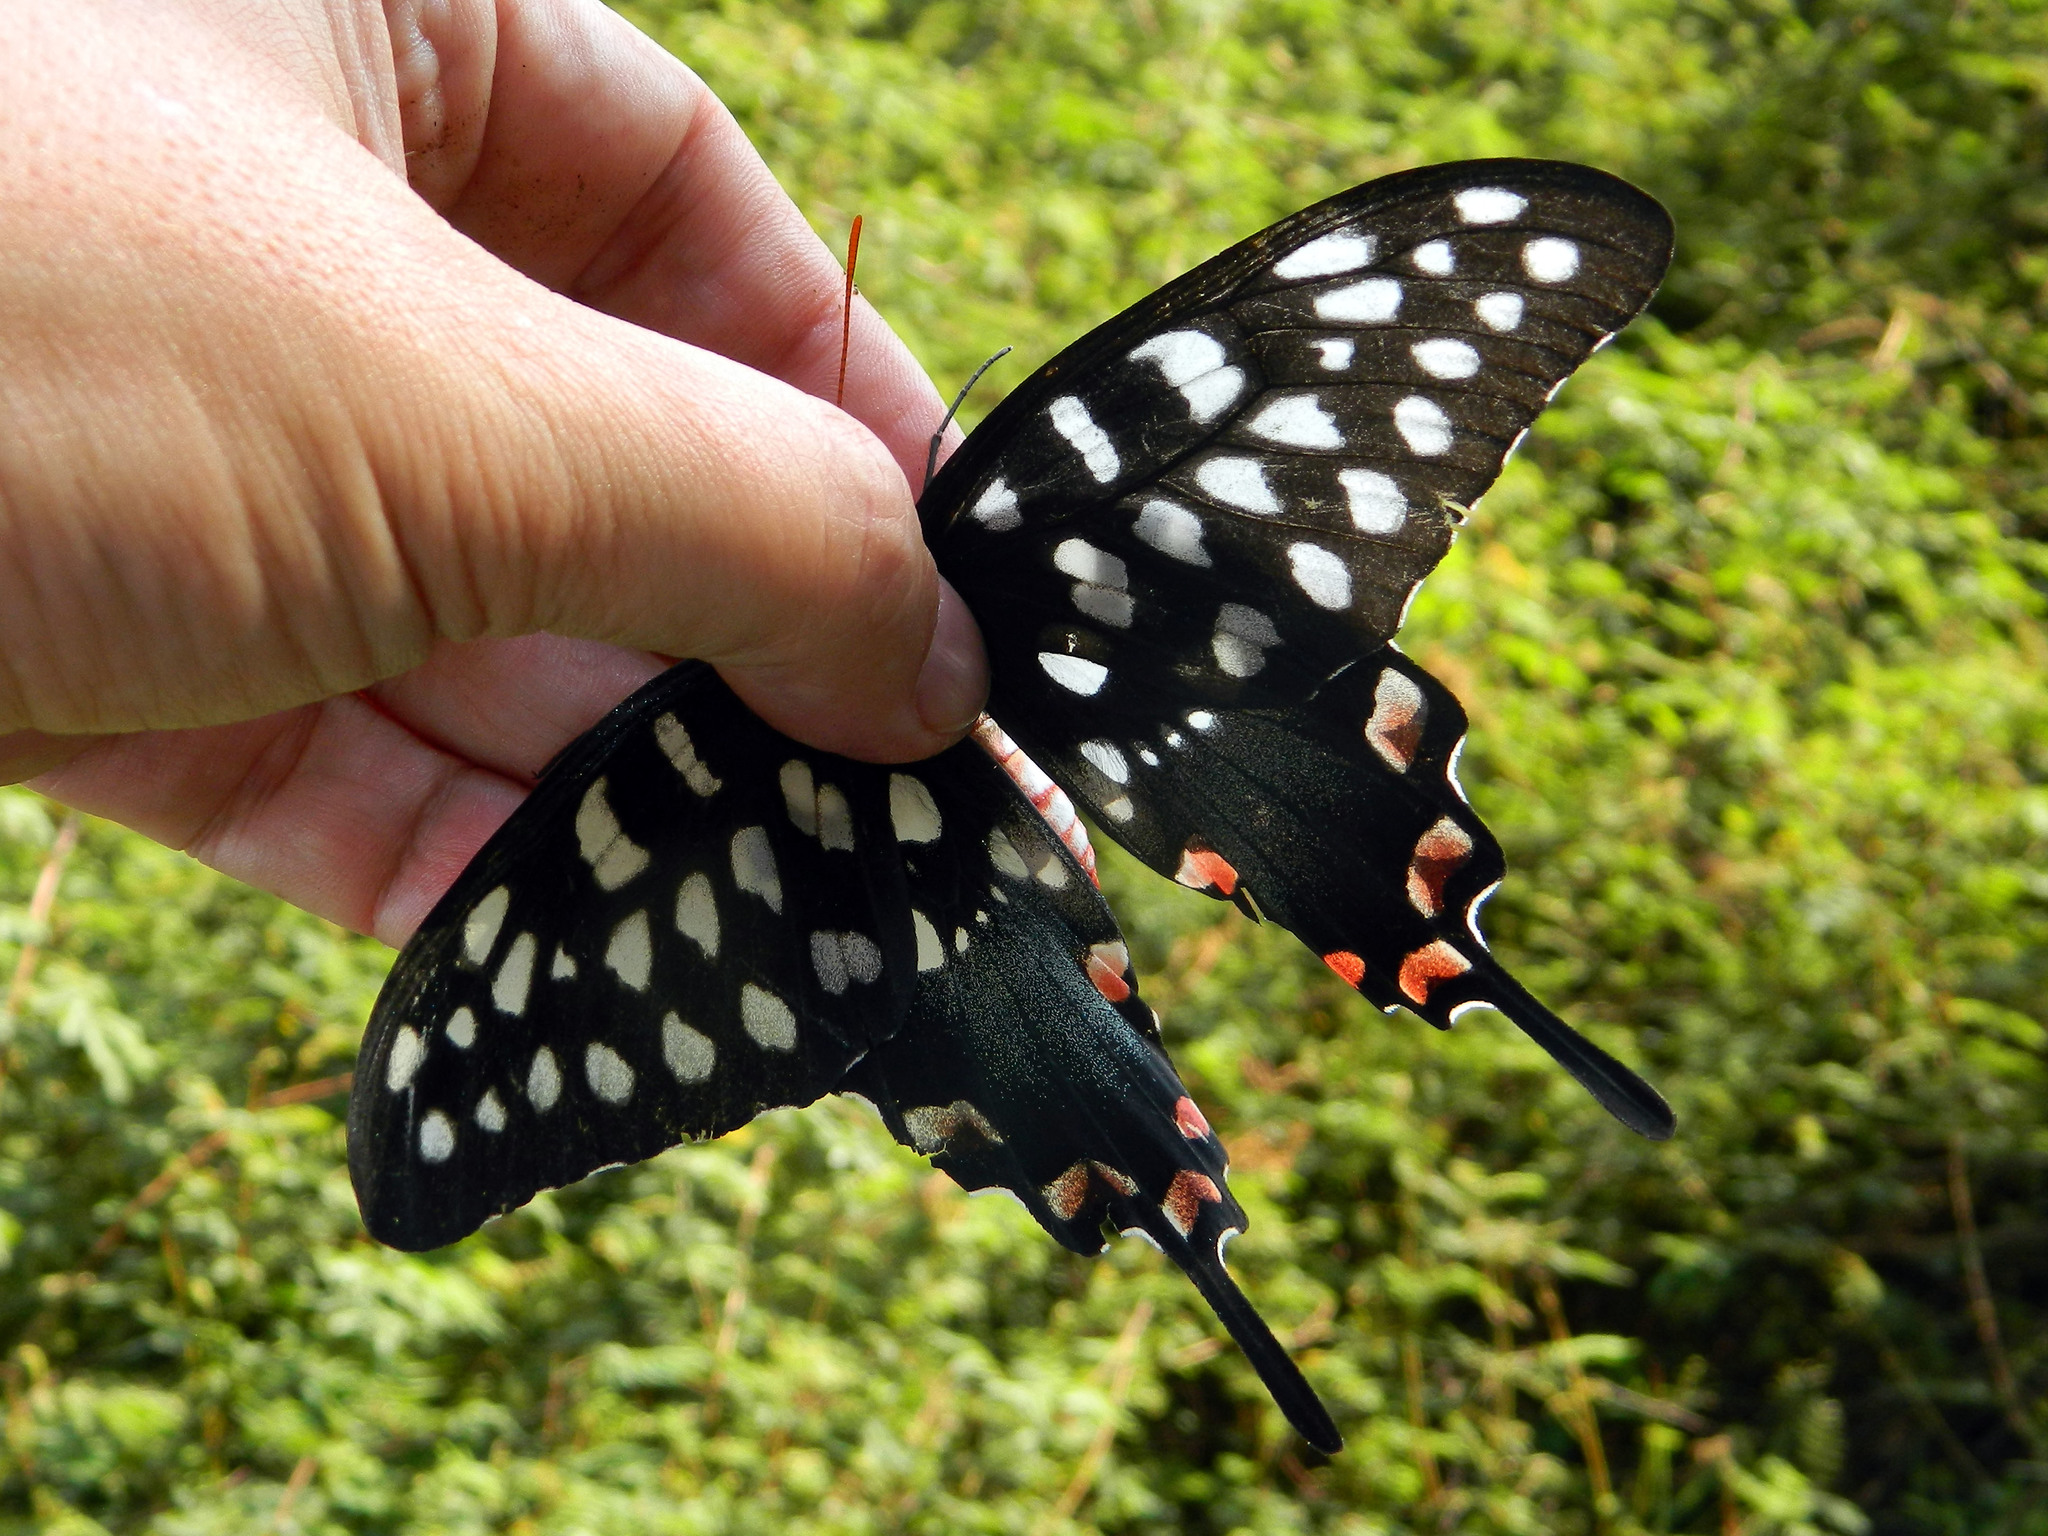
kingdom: Animalia
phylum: Arthropoda
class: Insecta
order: Lepidoptera
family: Papilionidae
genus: Pharmacophagus
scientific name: Pharmacophagus antenor
